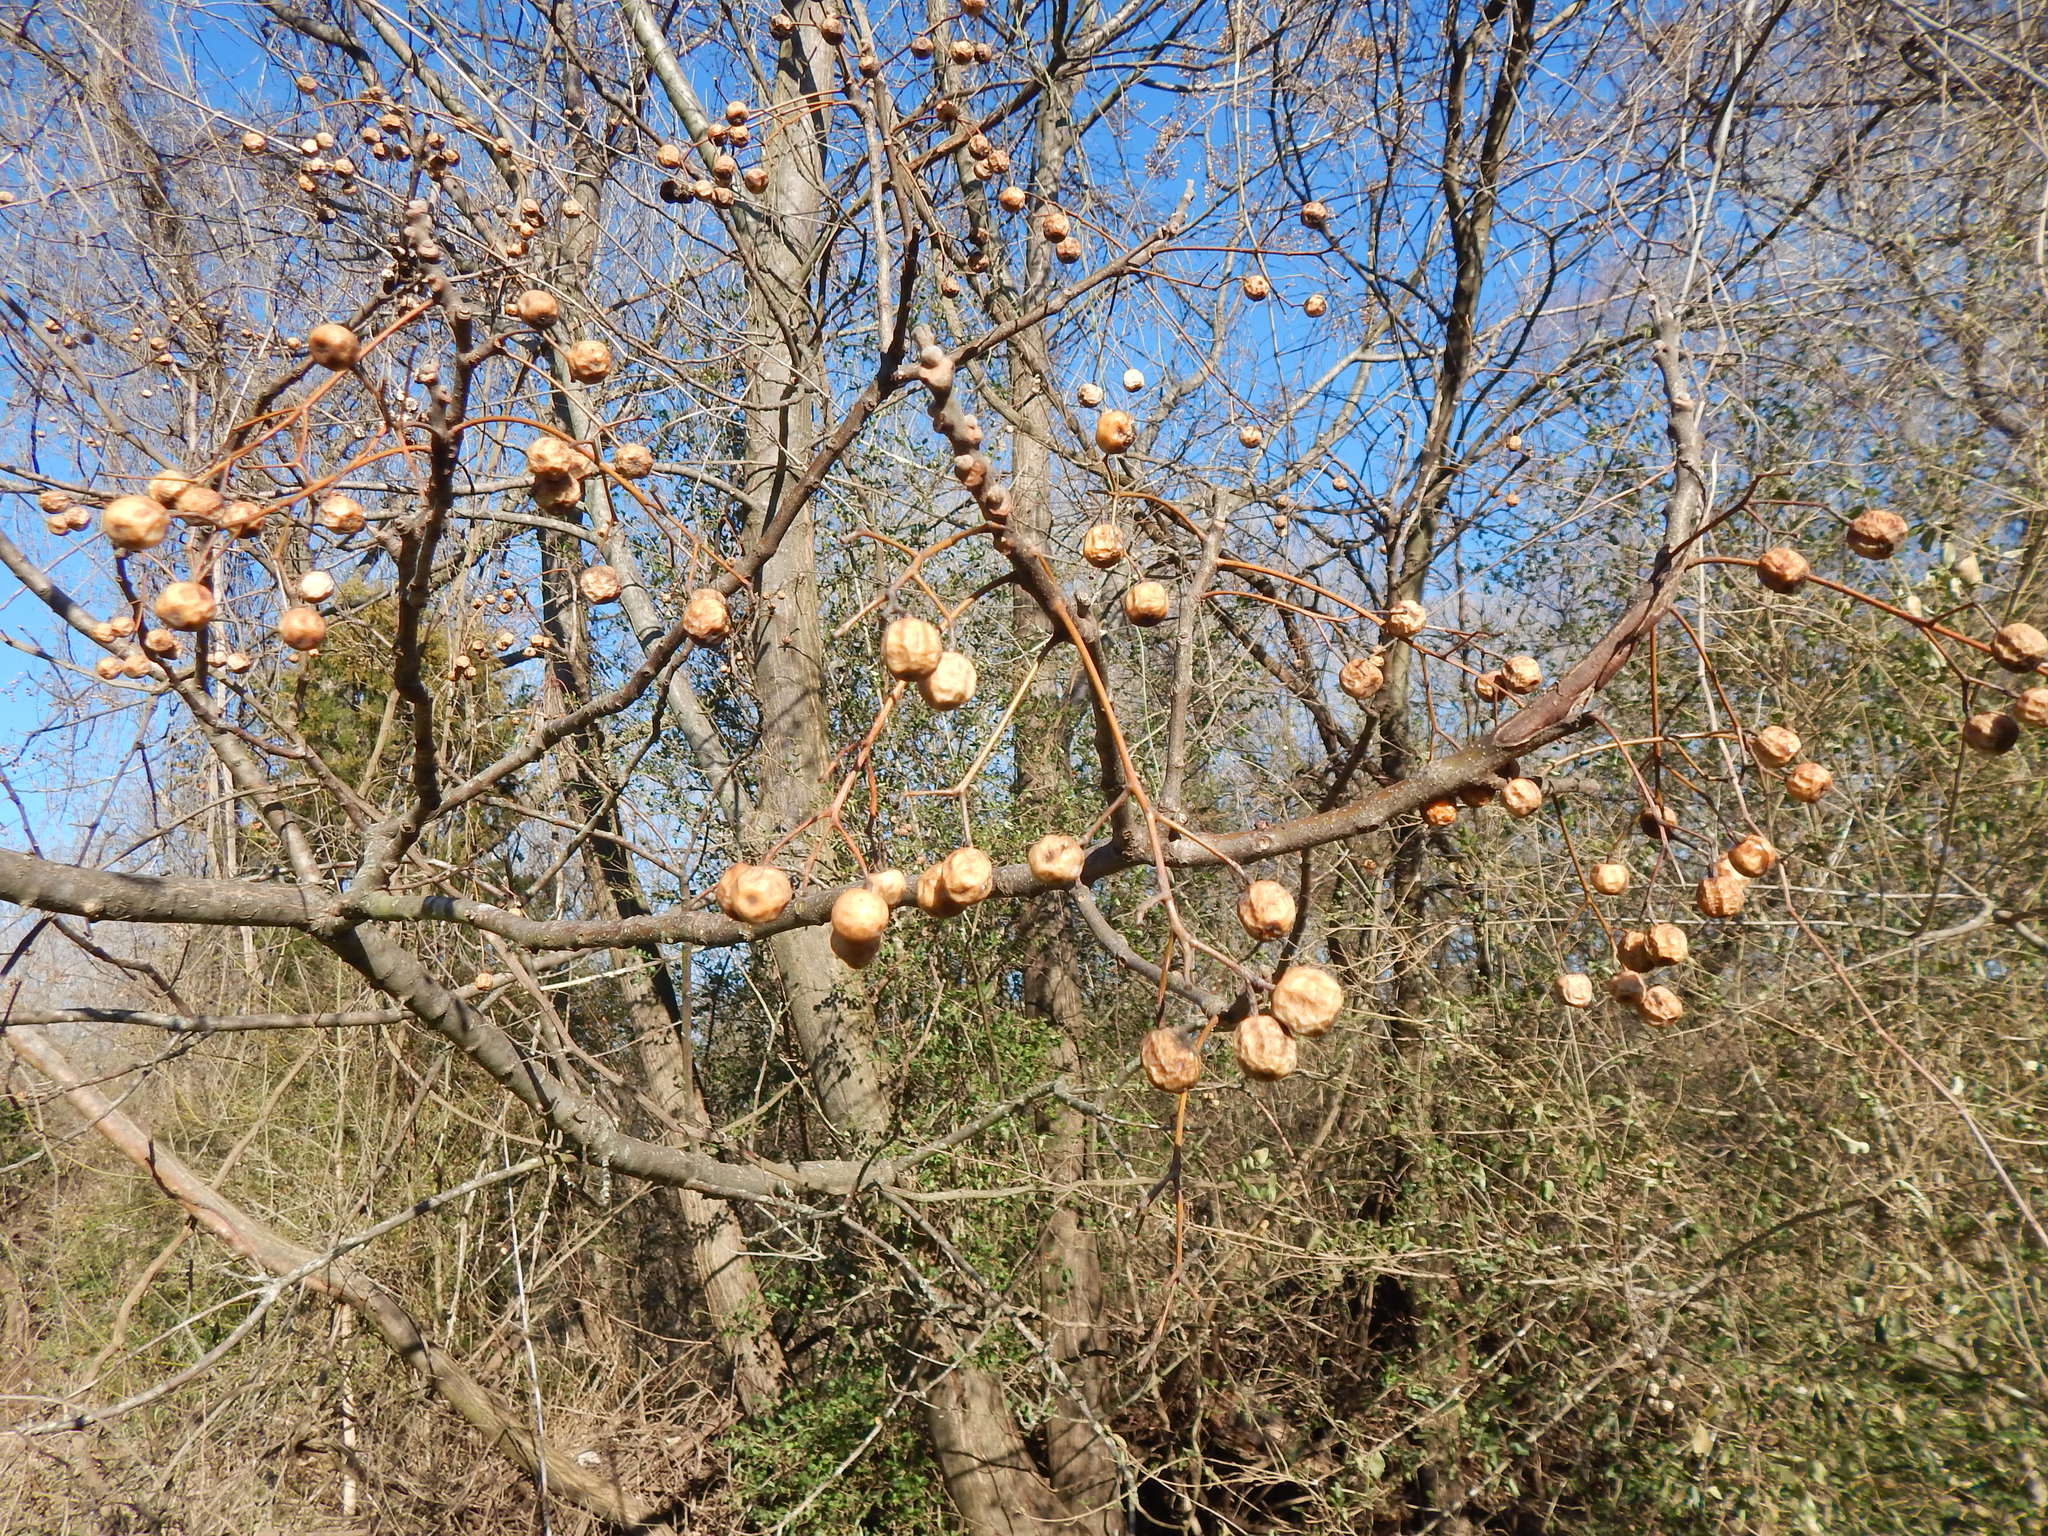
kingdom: Plantae
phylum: Tracheophyta
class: Magnoliopsida
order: Sapindales
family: Meliaceae
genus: Melia
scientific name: Melia azedarach
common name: Chinaberrytree
